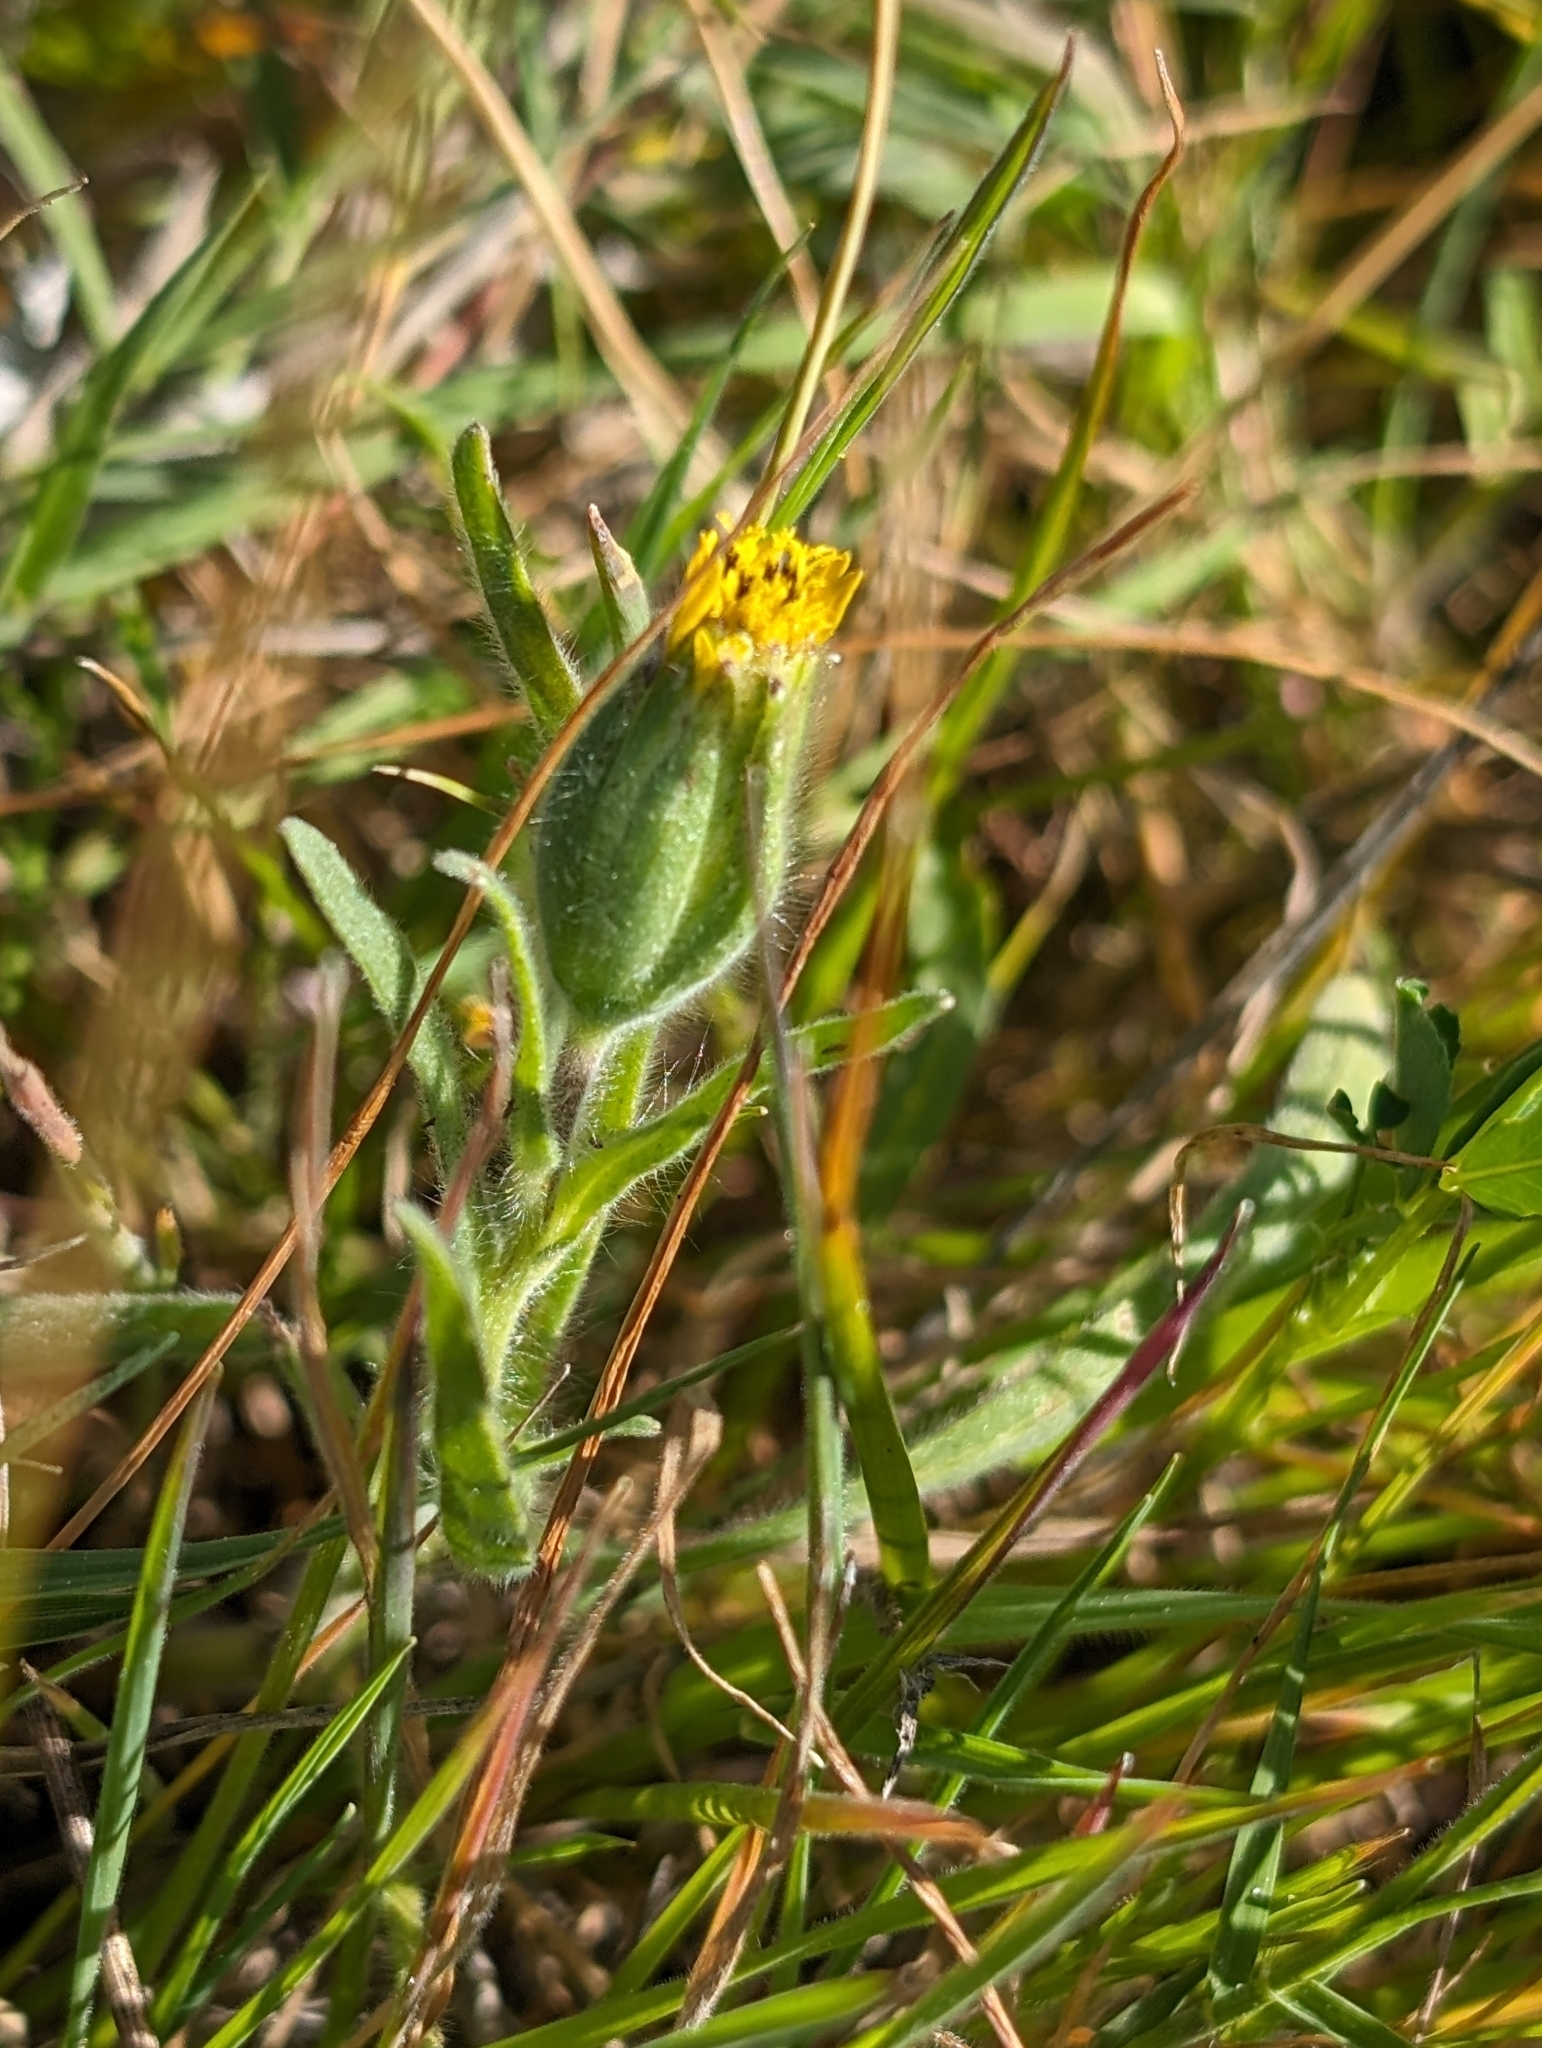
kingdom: Plantae
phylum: Tracheophyta
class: Magnoliopsida
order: Asterales
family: Asteraceae
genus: Achyrachaena
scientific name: Achyrachaena mollis
